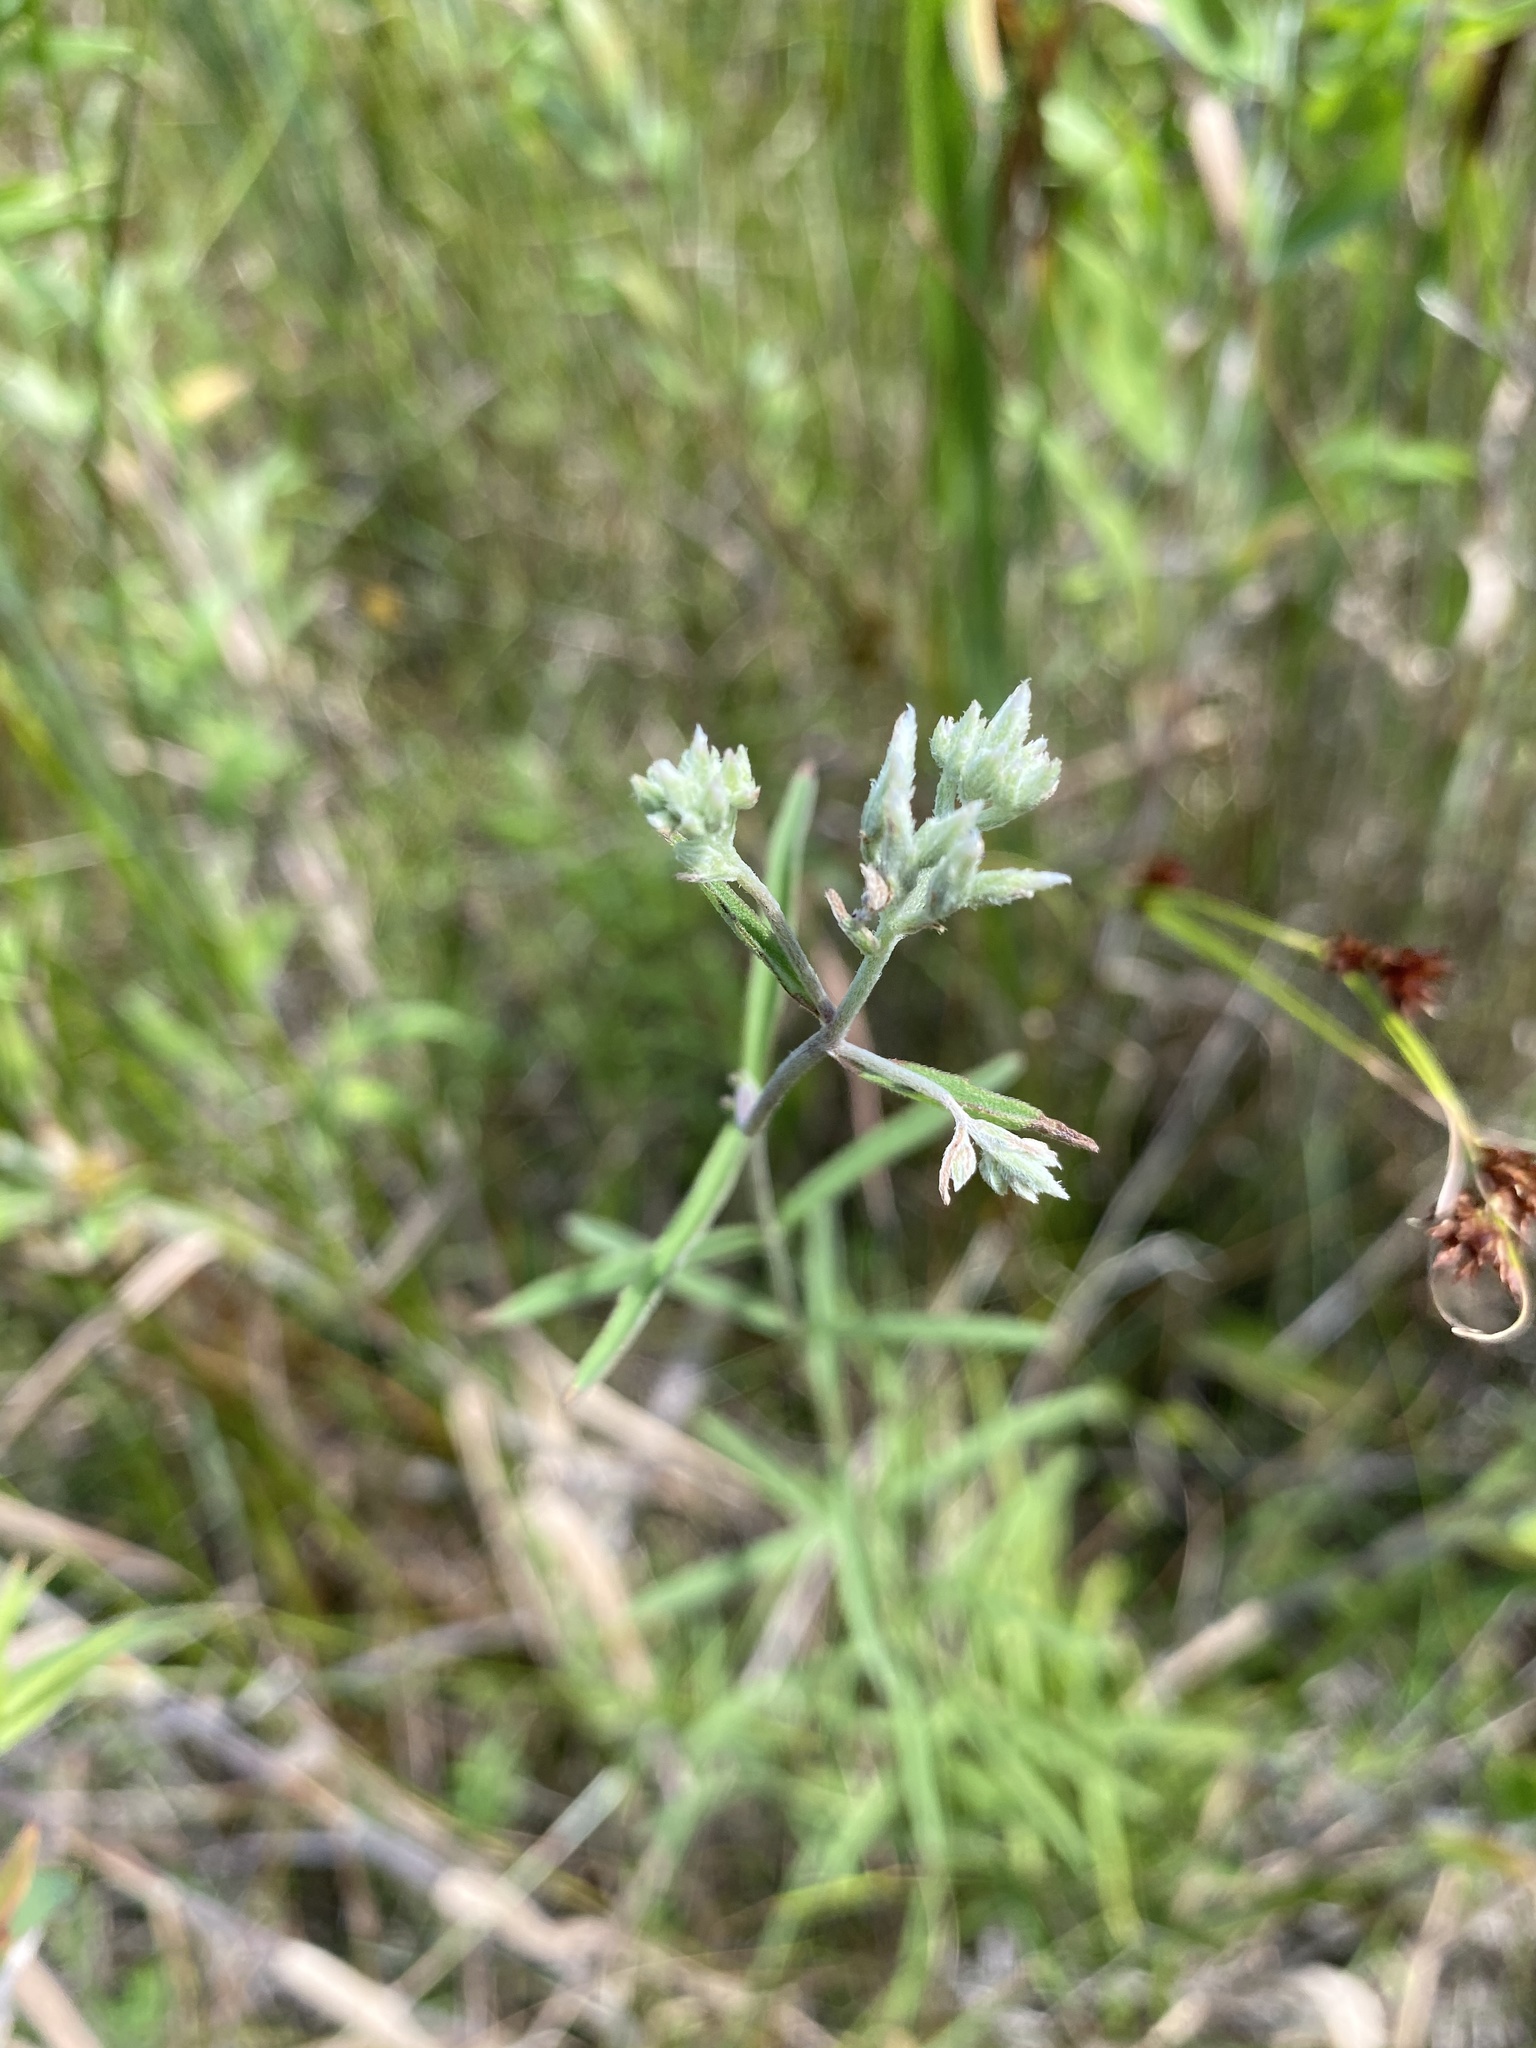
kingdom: Plantae
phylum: Tracheophyta
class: Magnoliopsida
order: Asterales
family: Asteraceae
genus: Eupatorium
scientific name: Eupatorium leucolepis
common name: Justiceweed
